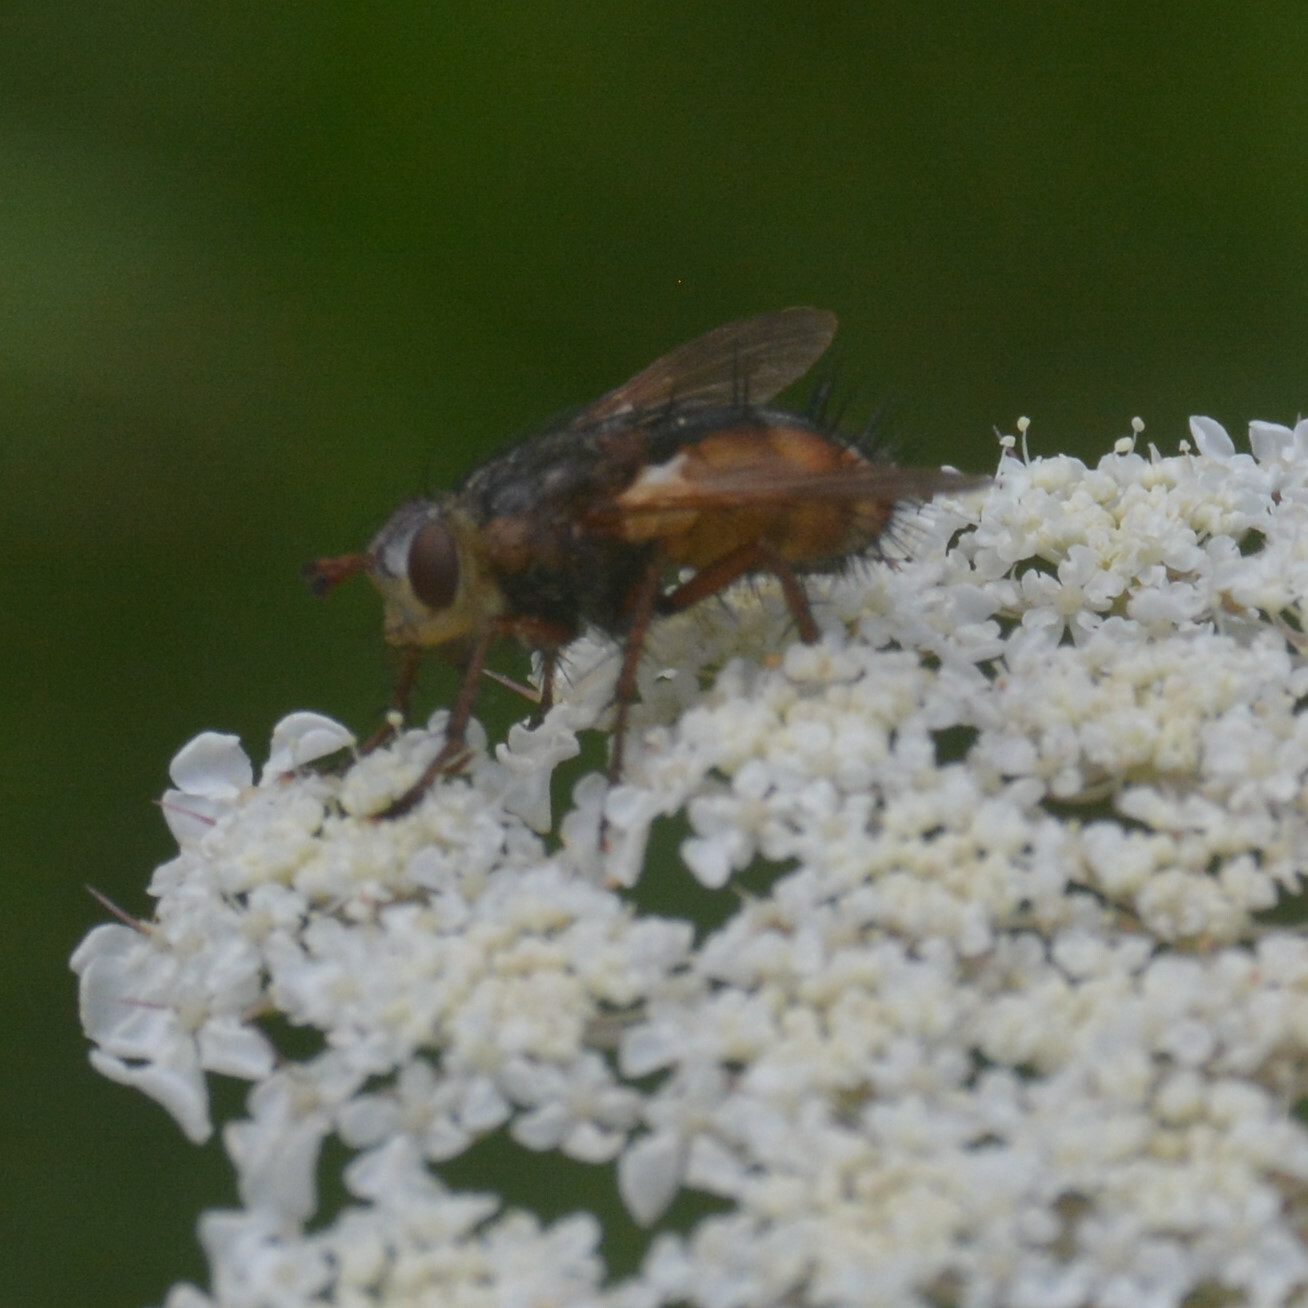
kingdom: Animalia
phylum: Arthropoda
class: Insecta
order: Diptera
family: Tachinidae
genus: Tachina
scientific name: Tachina fera
